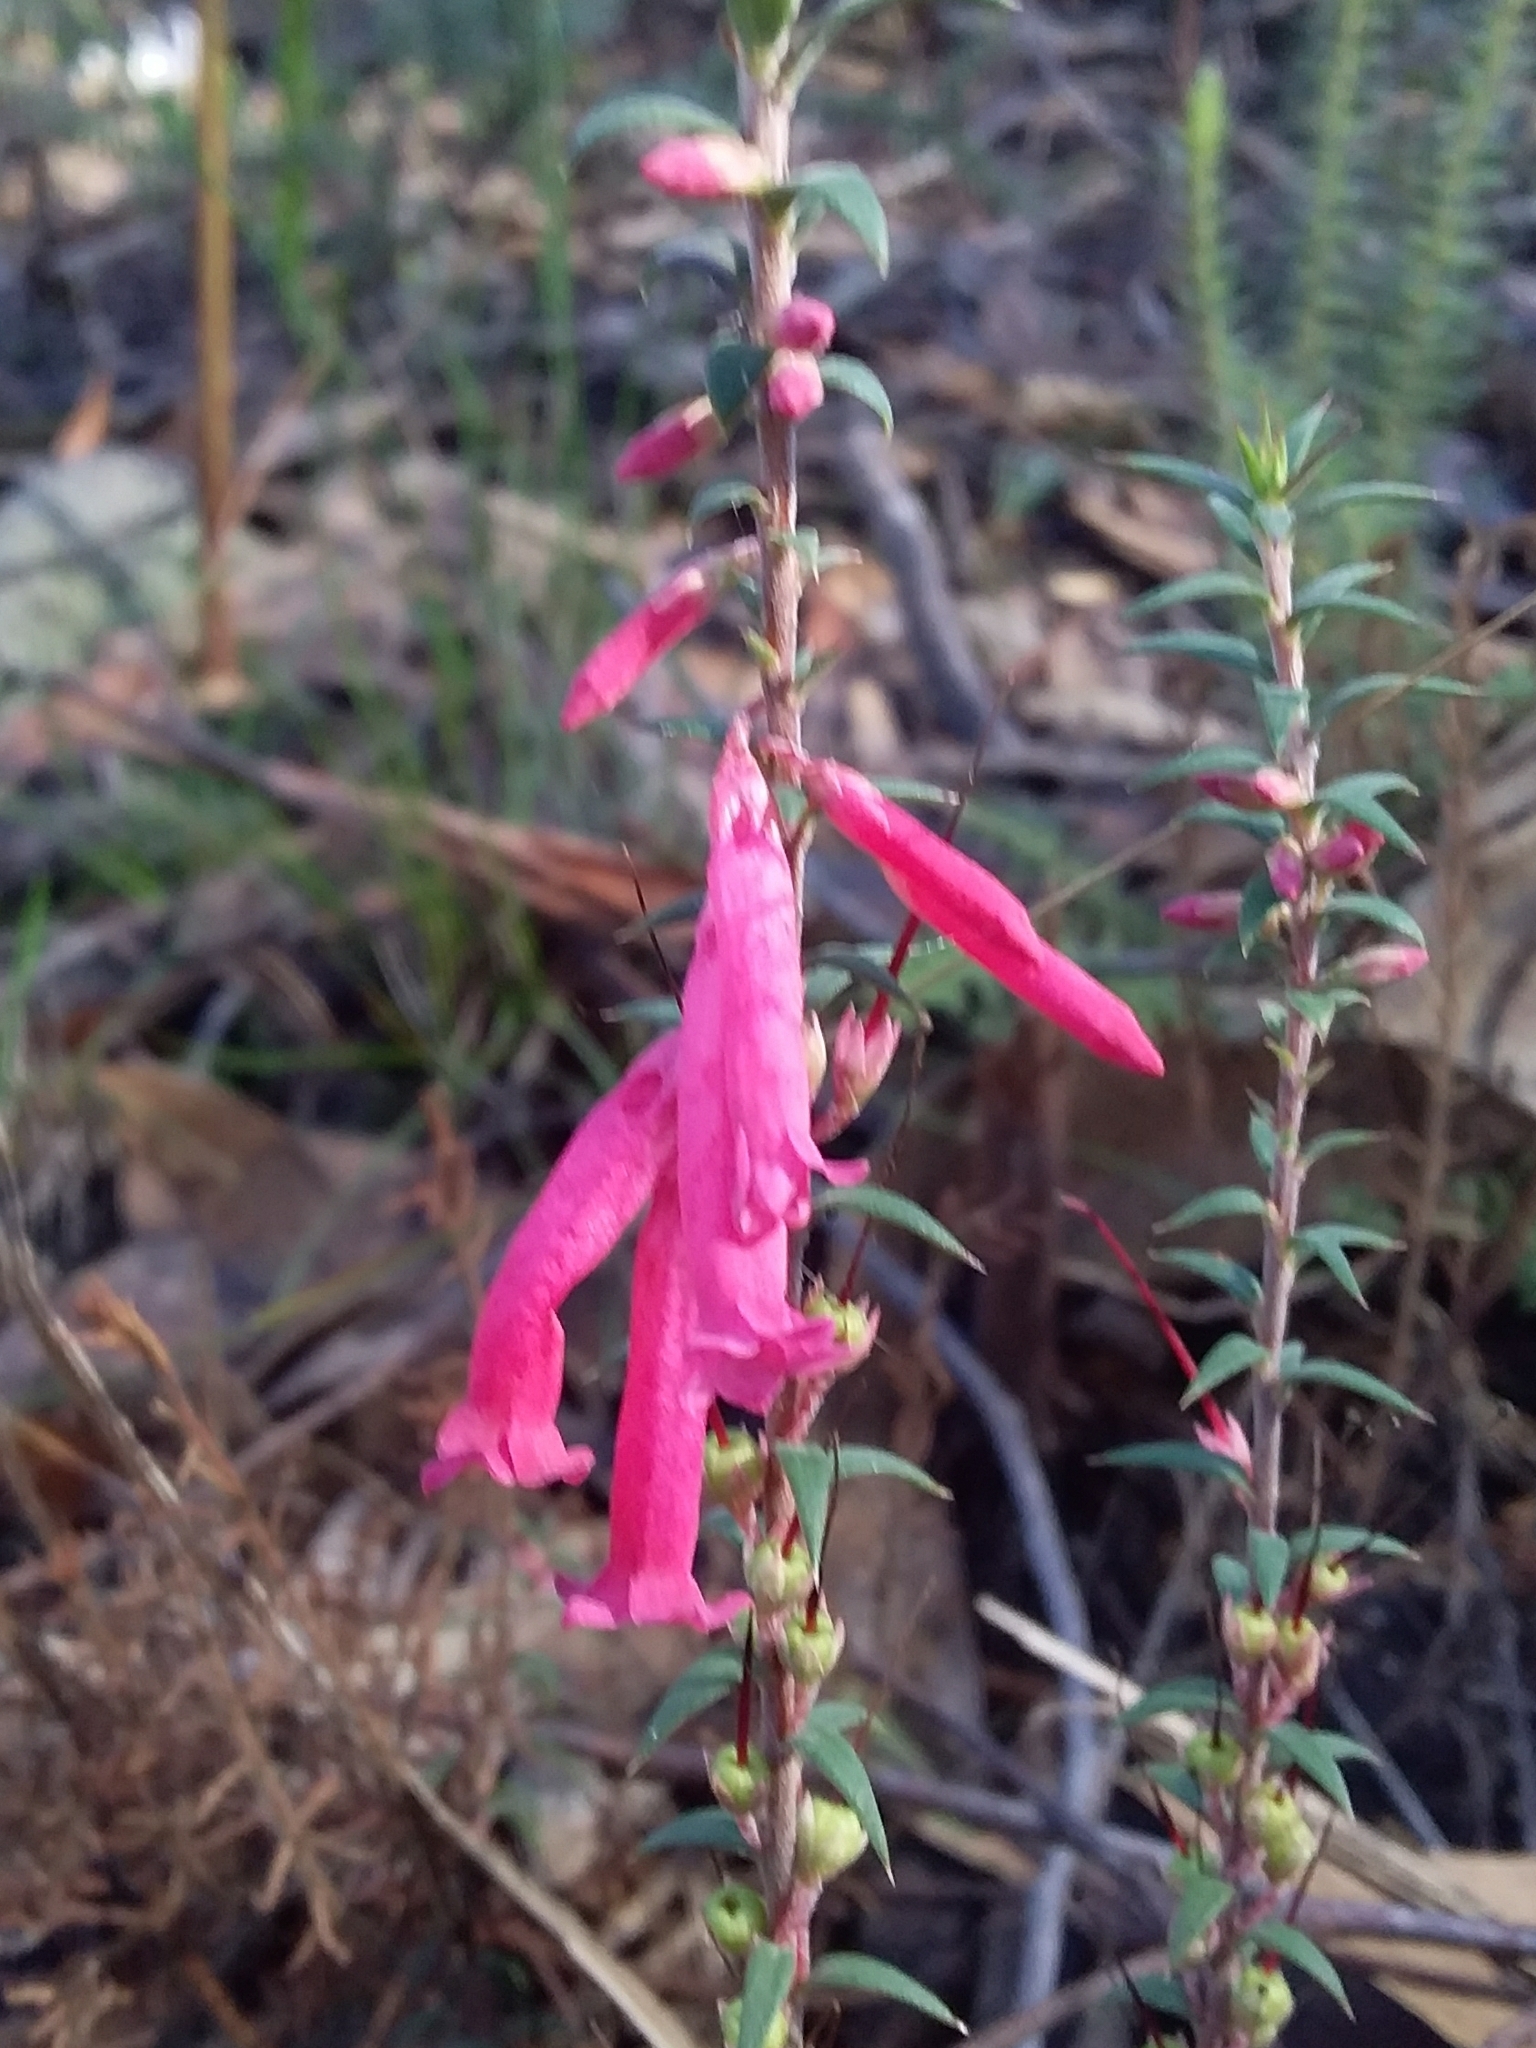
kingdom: Plantae
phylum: Tracheophyta
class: Magnoliopsida
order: Ericales
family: Ericaceae
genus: Epacris
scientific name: Epacris impressa
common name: Common-heath
